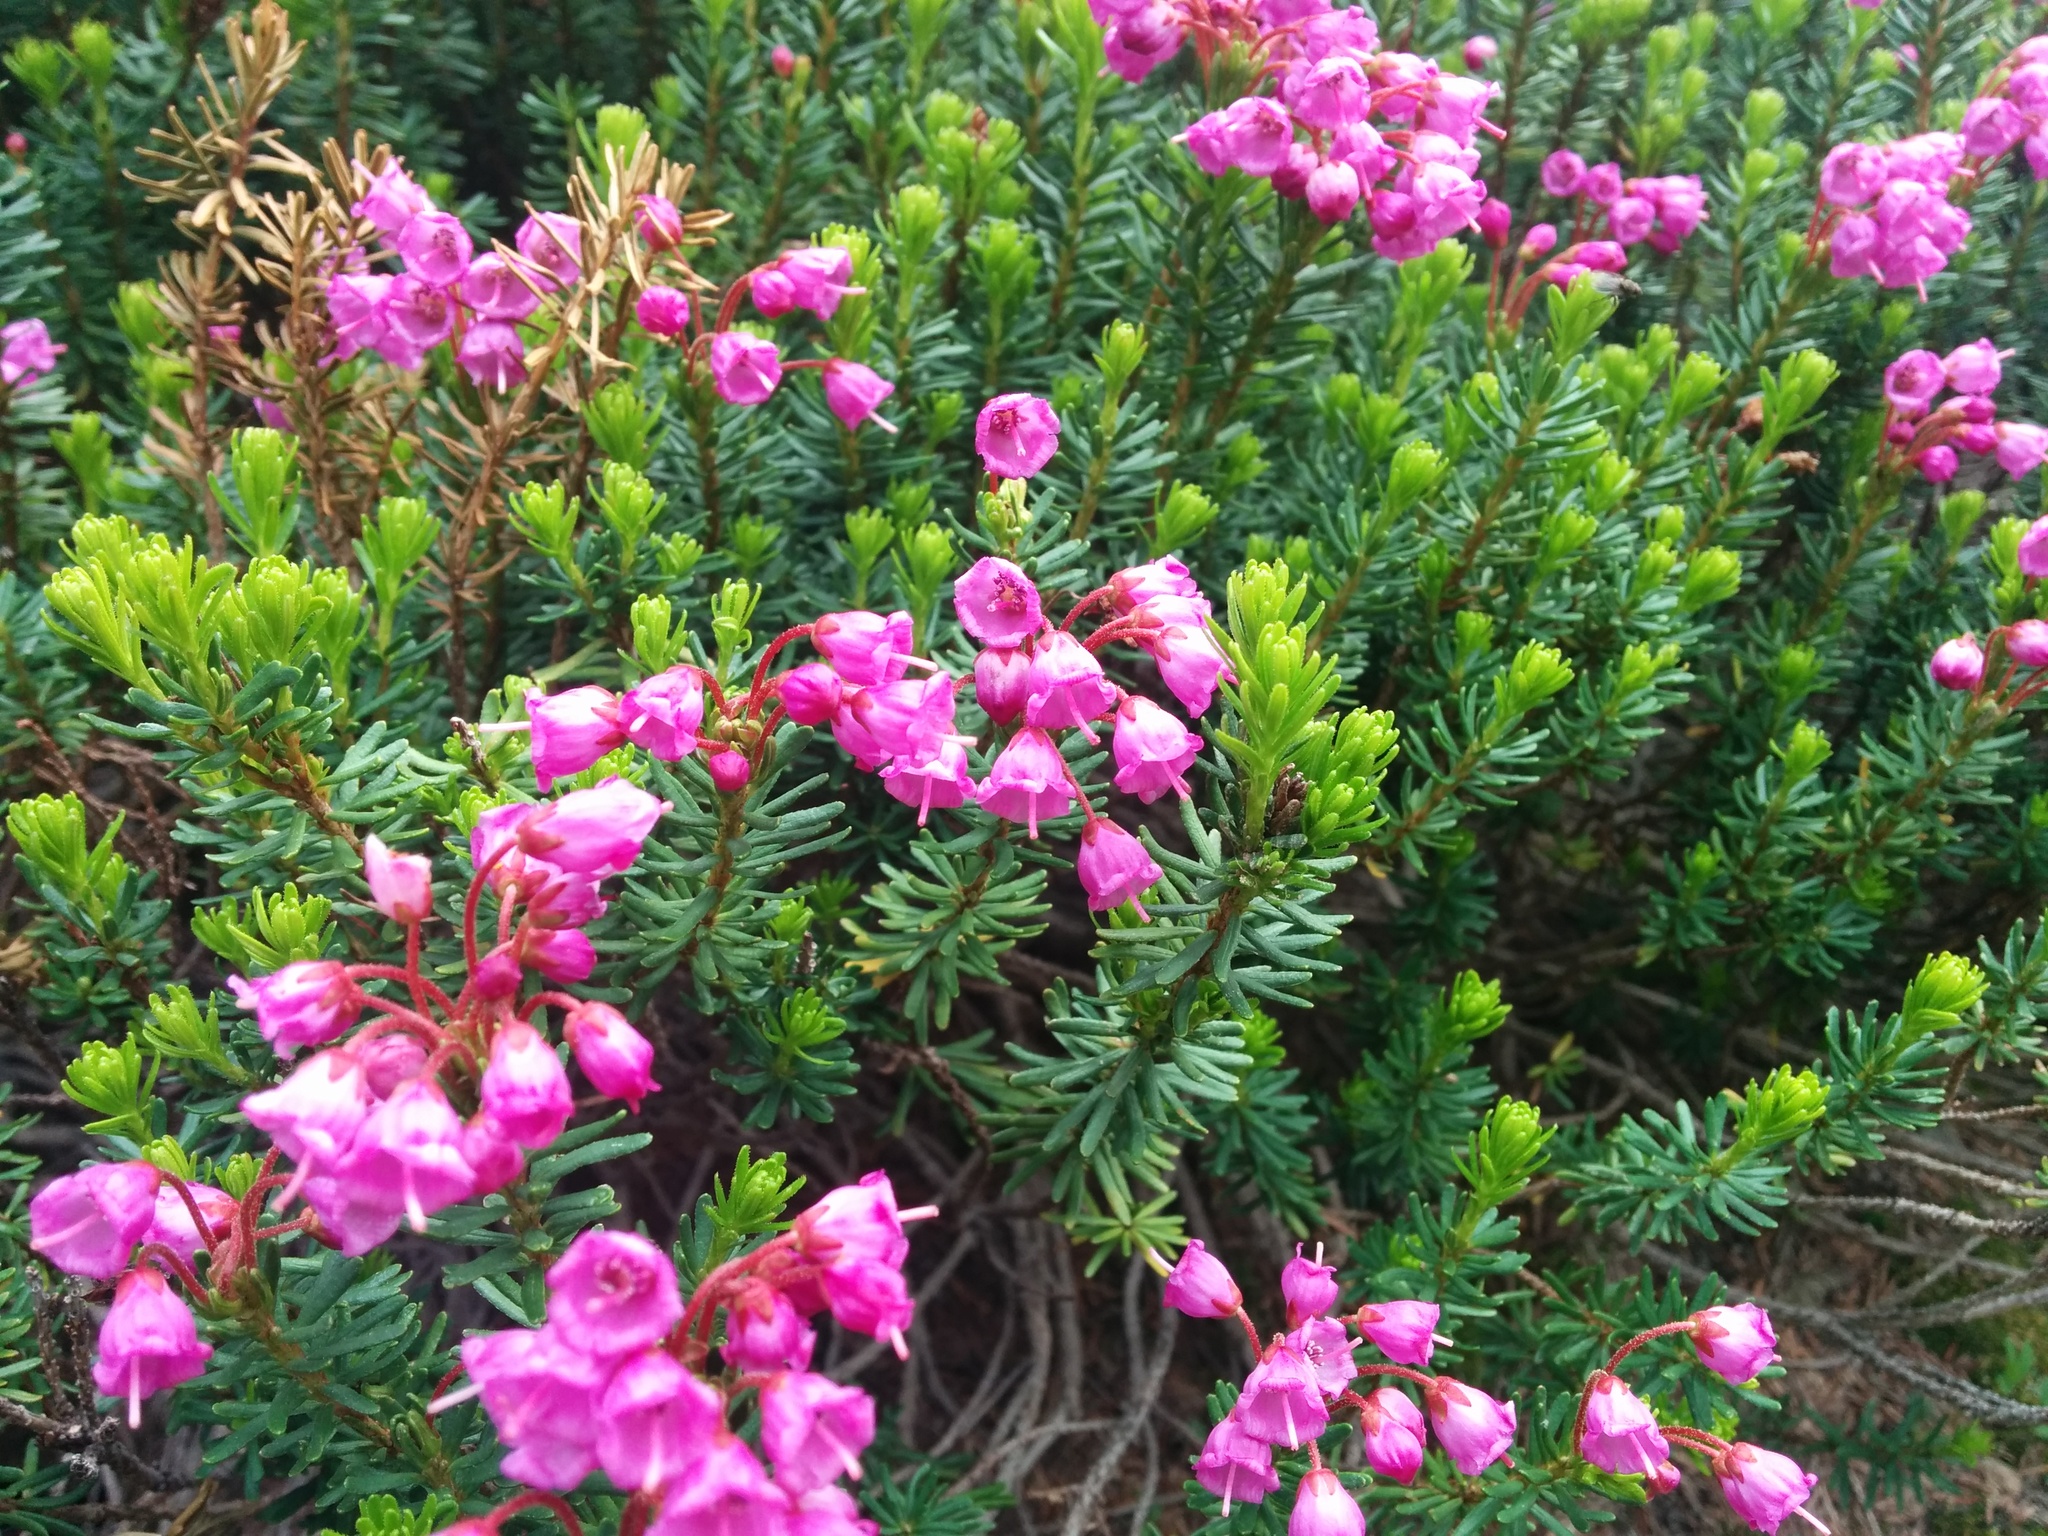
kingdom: Plantae
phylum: Tracheophyta
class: Magnoliopsida
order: Ericales
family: Ericaceae
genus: Phyllodoce
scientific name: Phyllodoce empetriformis
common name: Pink mountain heather
